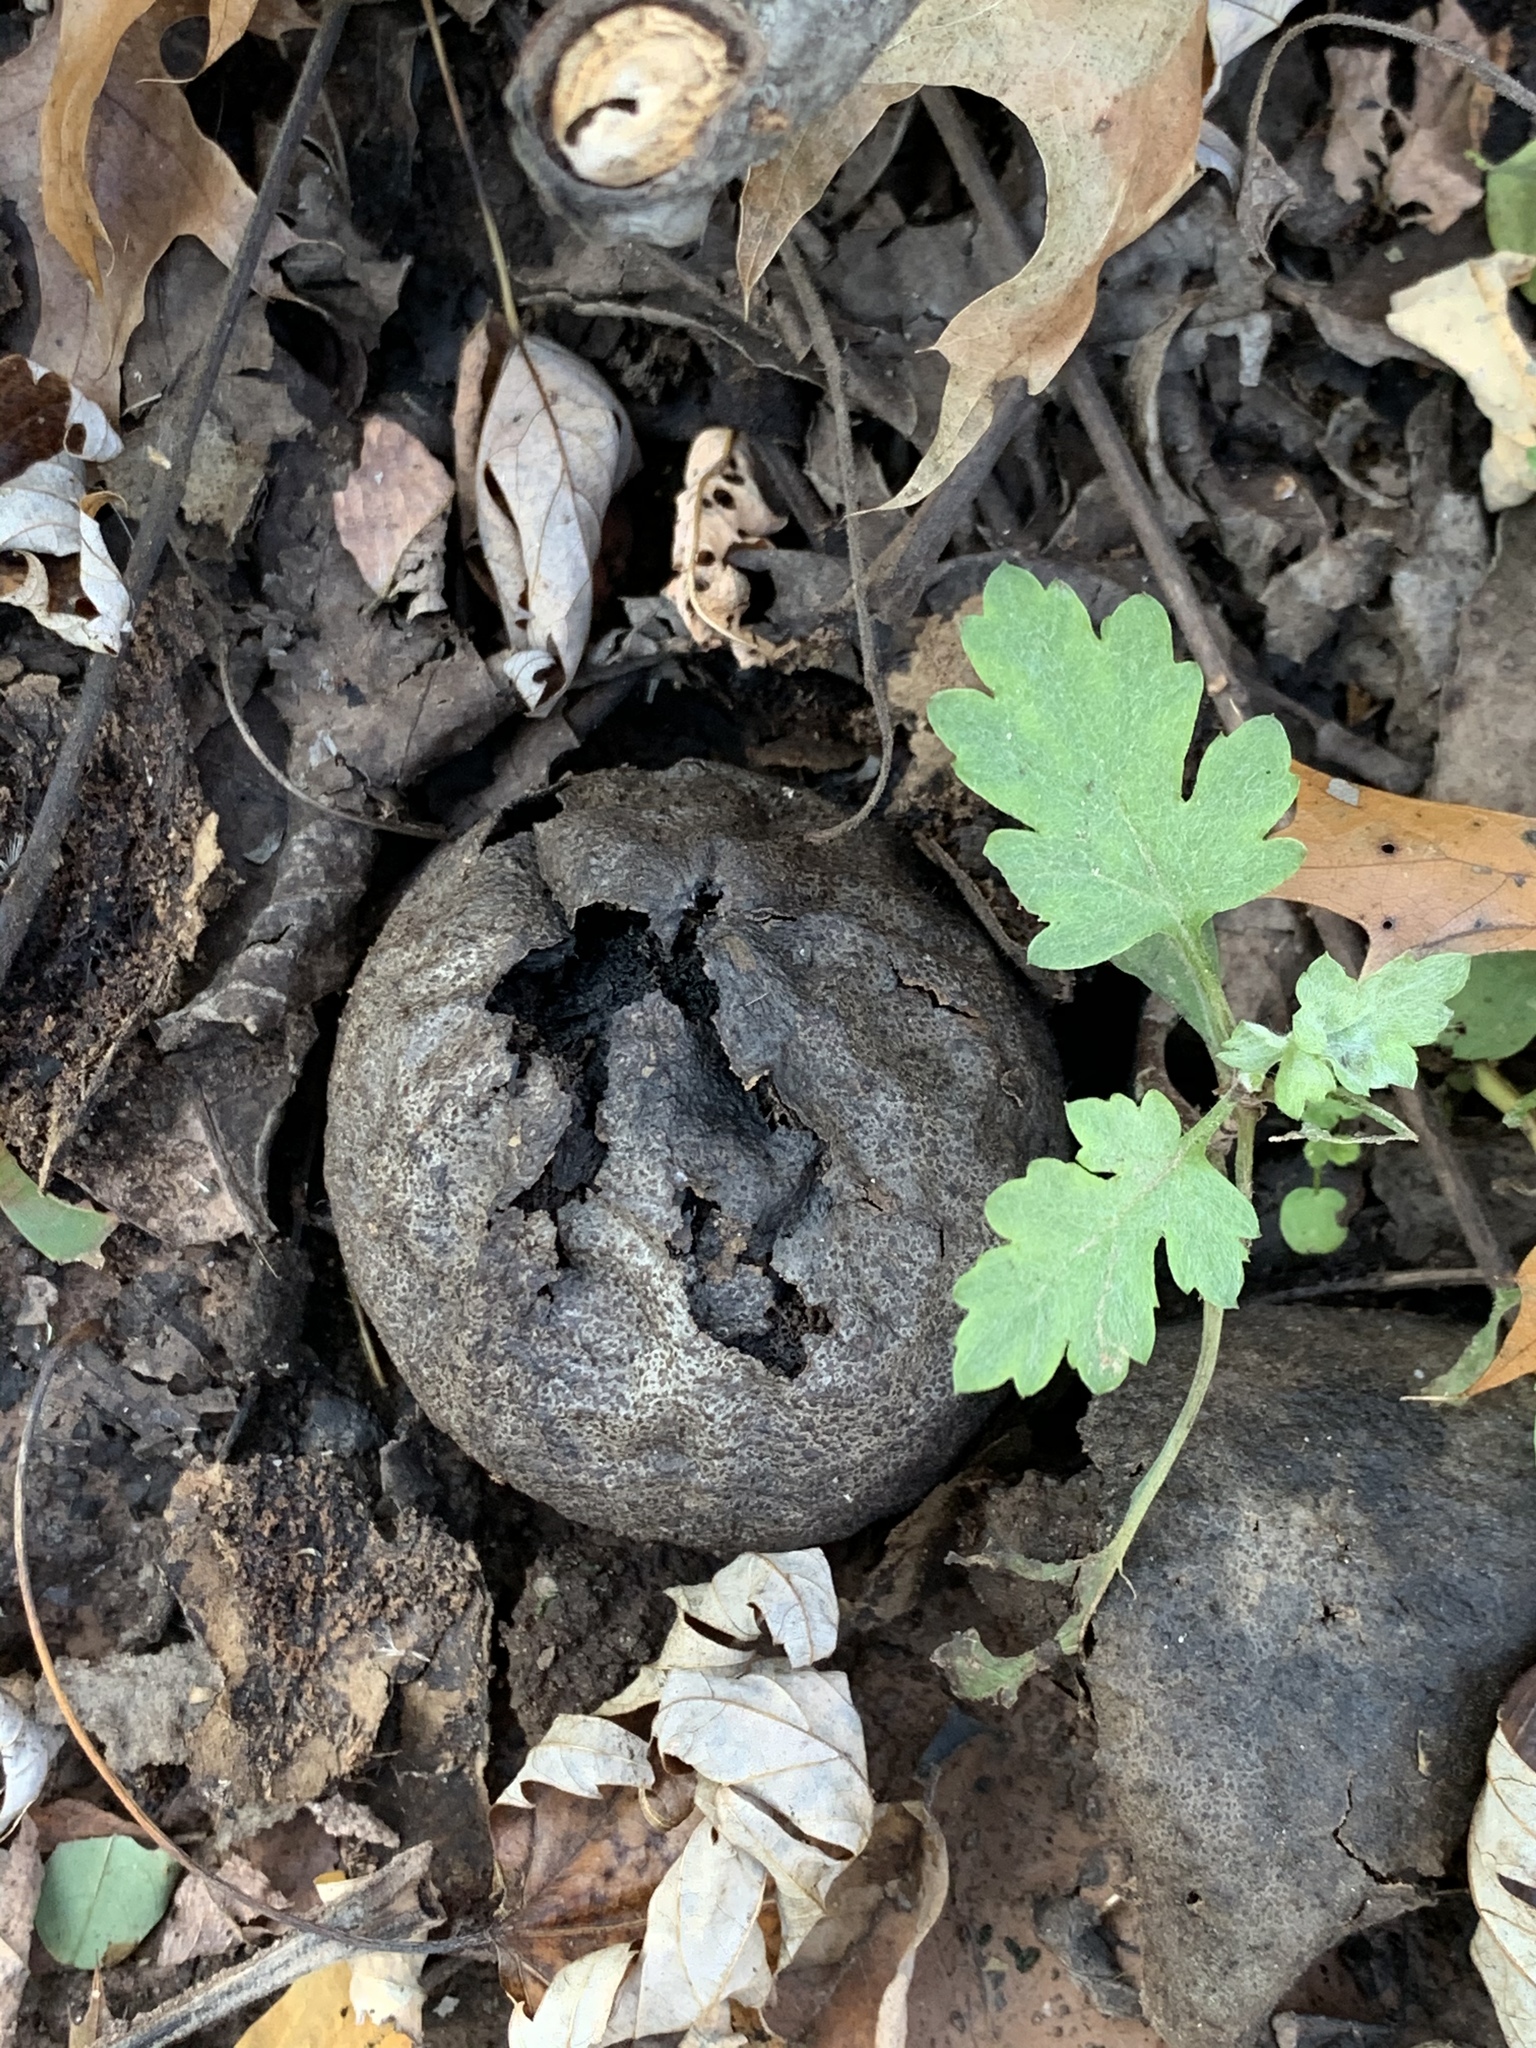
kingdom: Plantae
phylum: Tracheophyta
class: Magnoliopsida
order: Fagales
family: Juglandaceae
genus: Juglans
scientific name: Juglans nigra
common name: Black walnut
